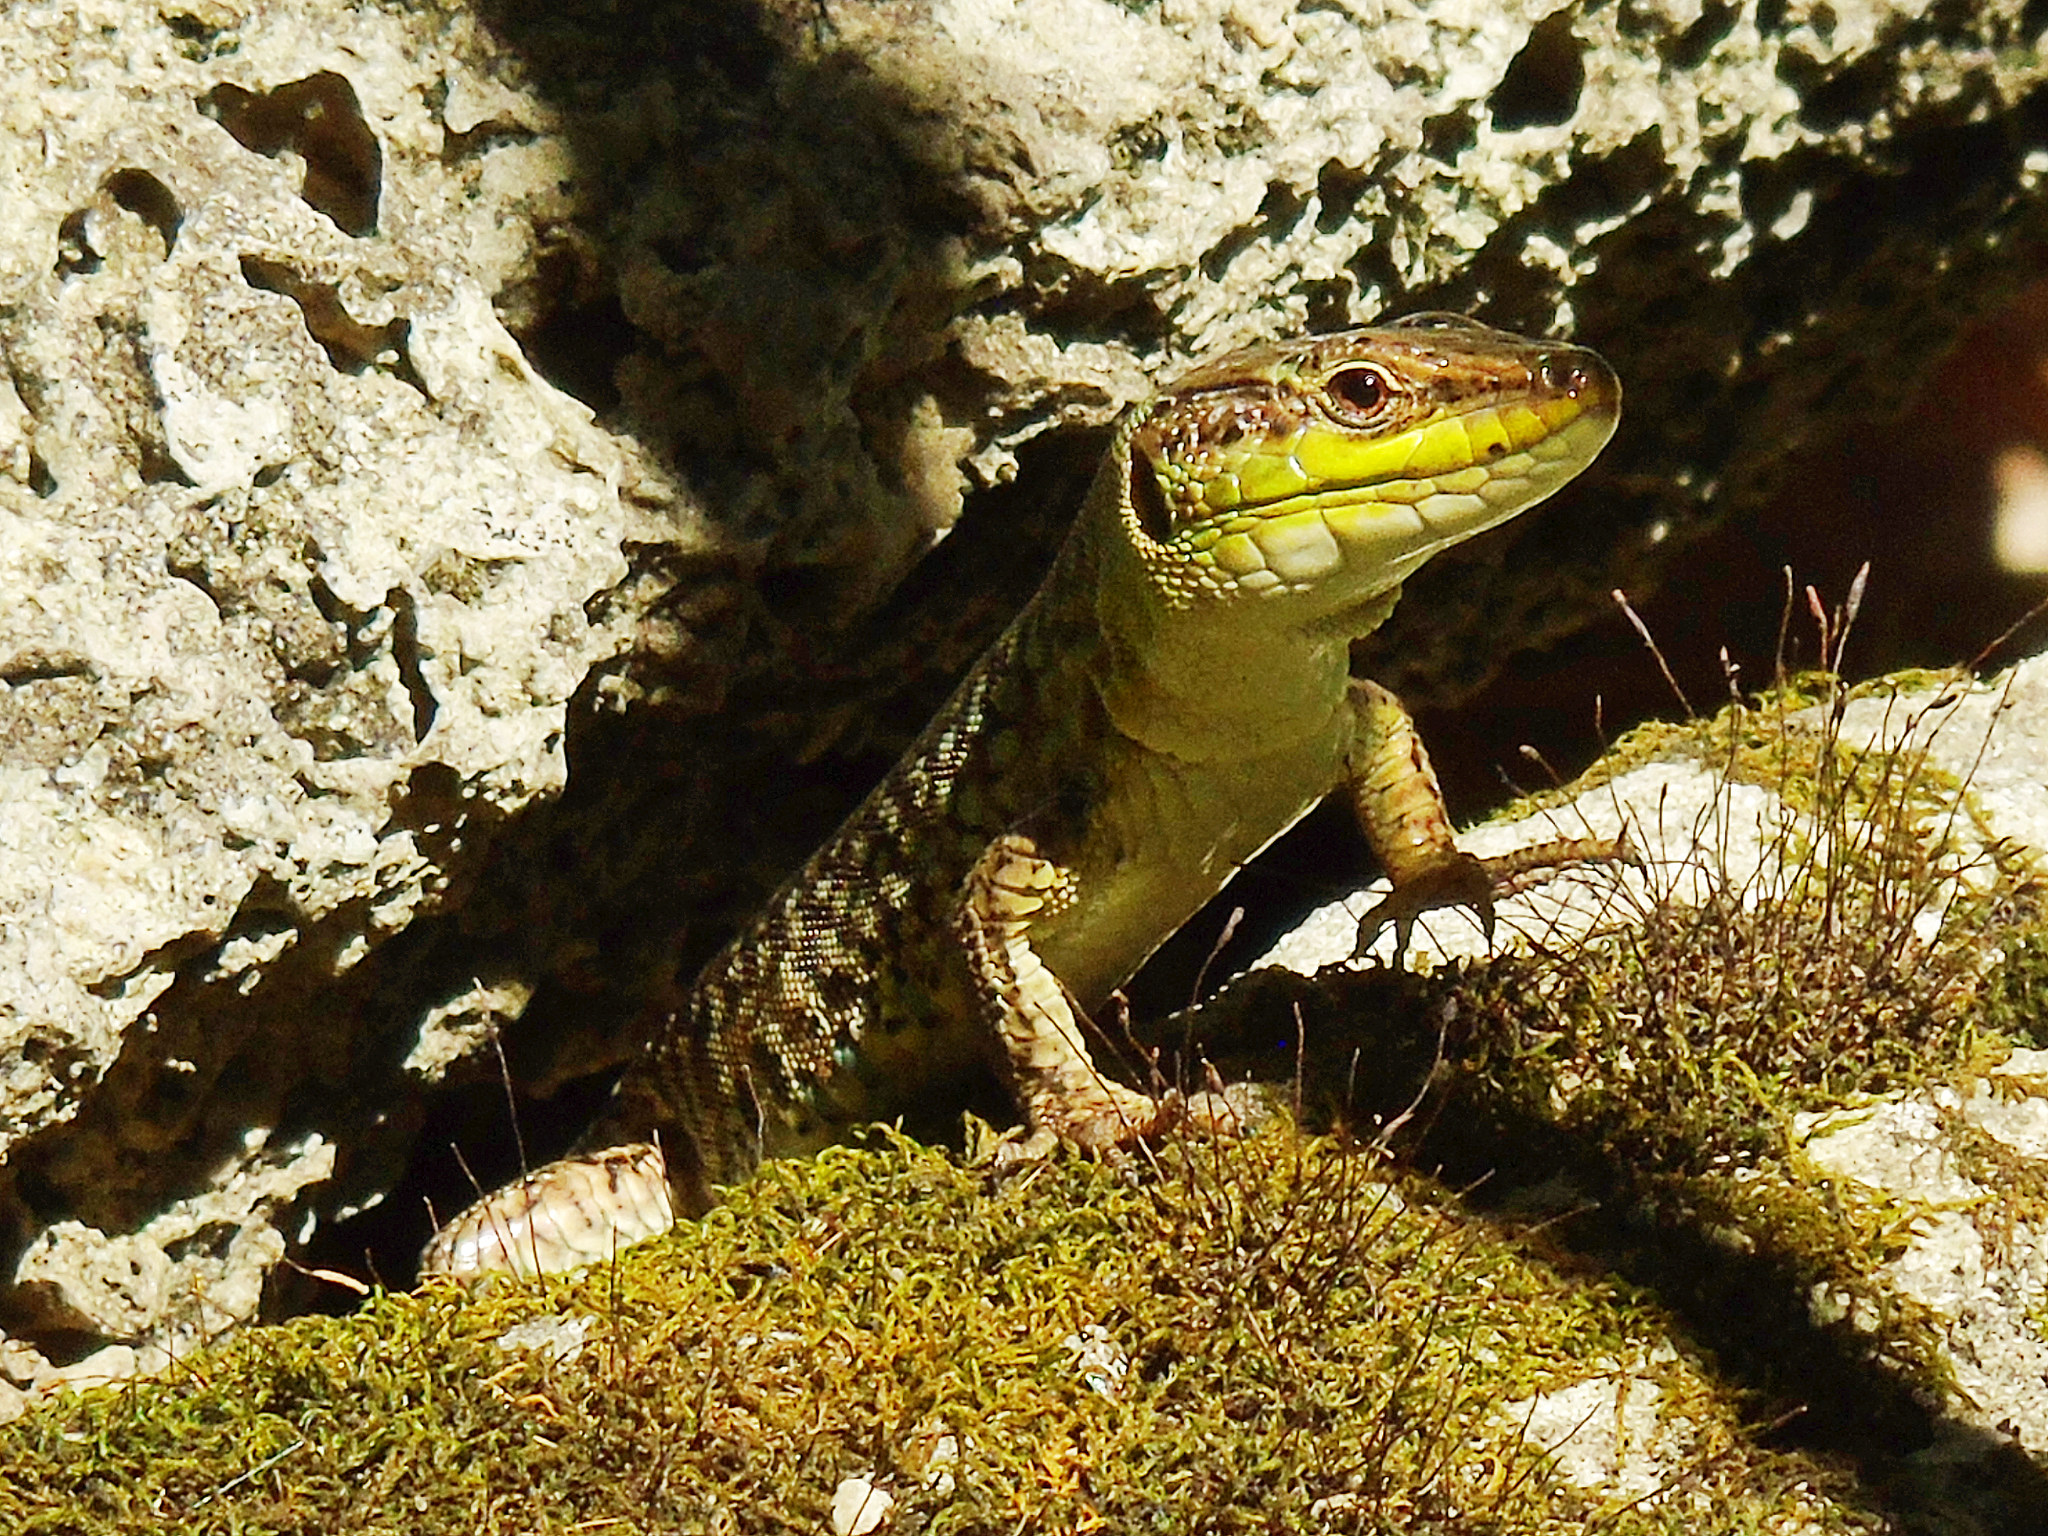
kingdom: Animalia
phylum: Chordata
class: Squamata
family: Lacertidae
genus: Podarcis
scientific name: Podarcis siculus
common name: Italian wall lizard
